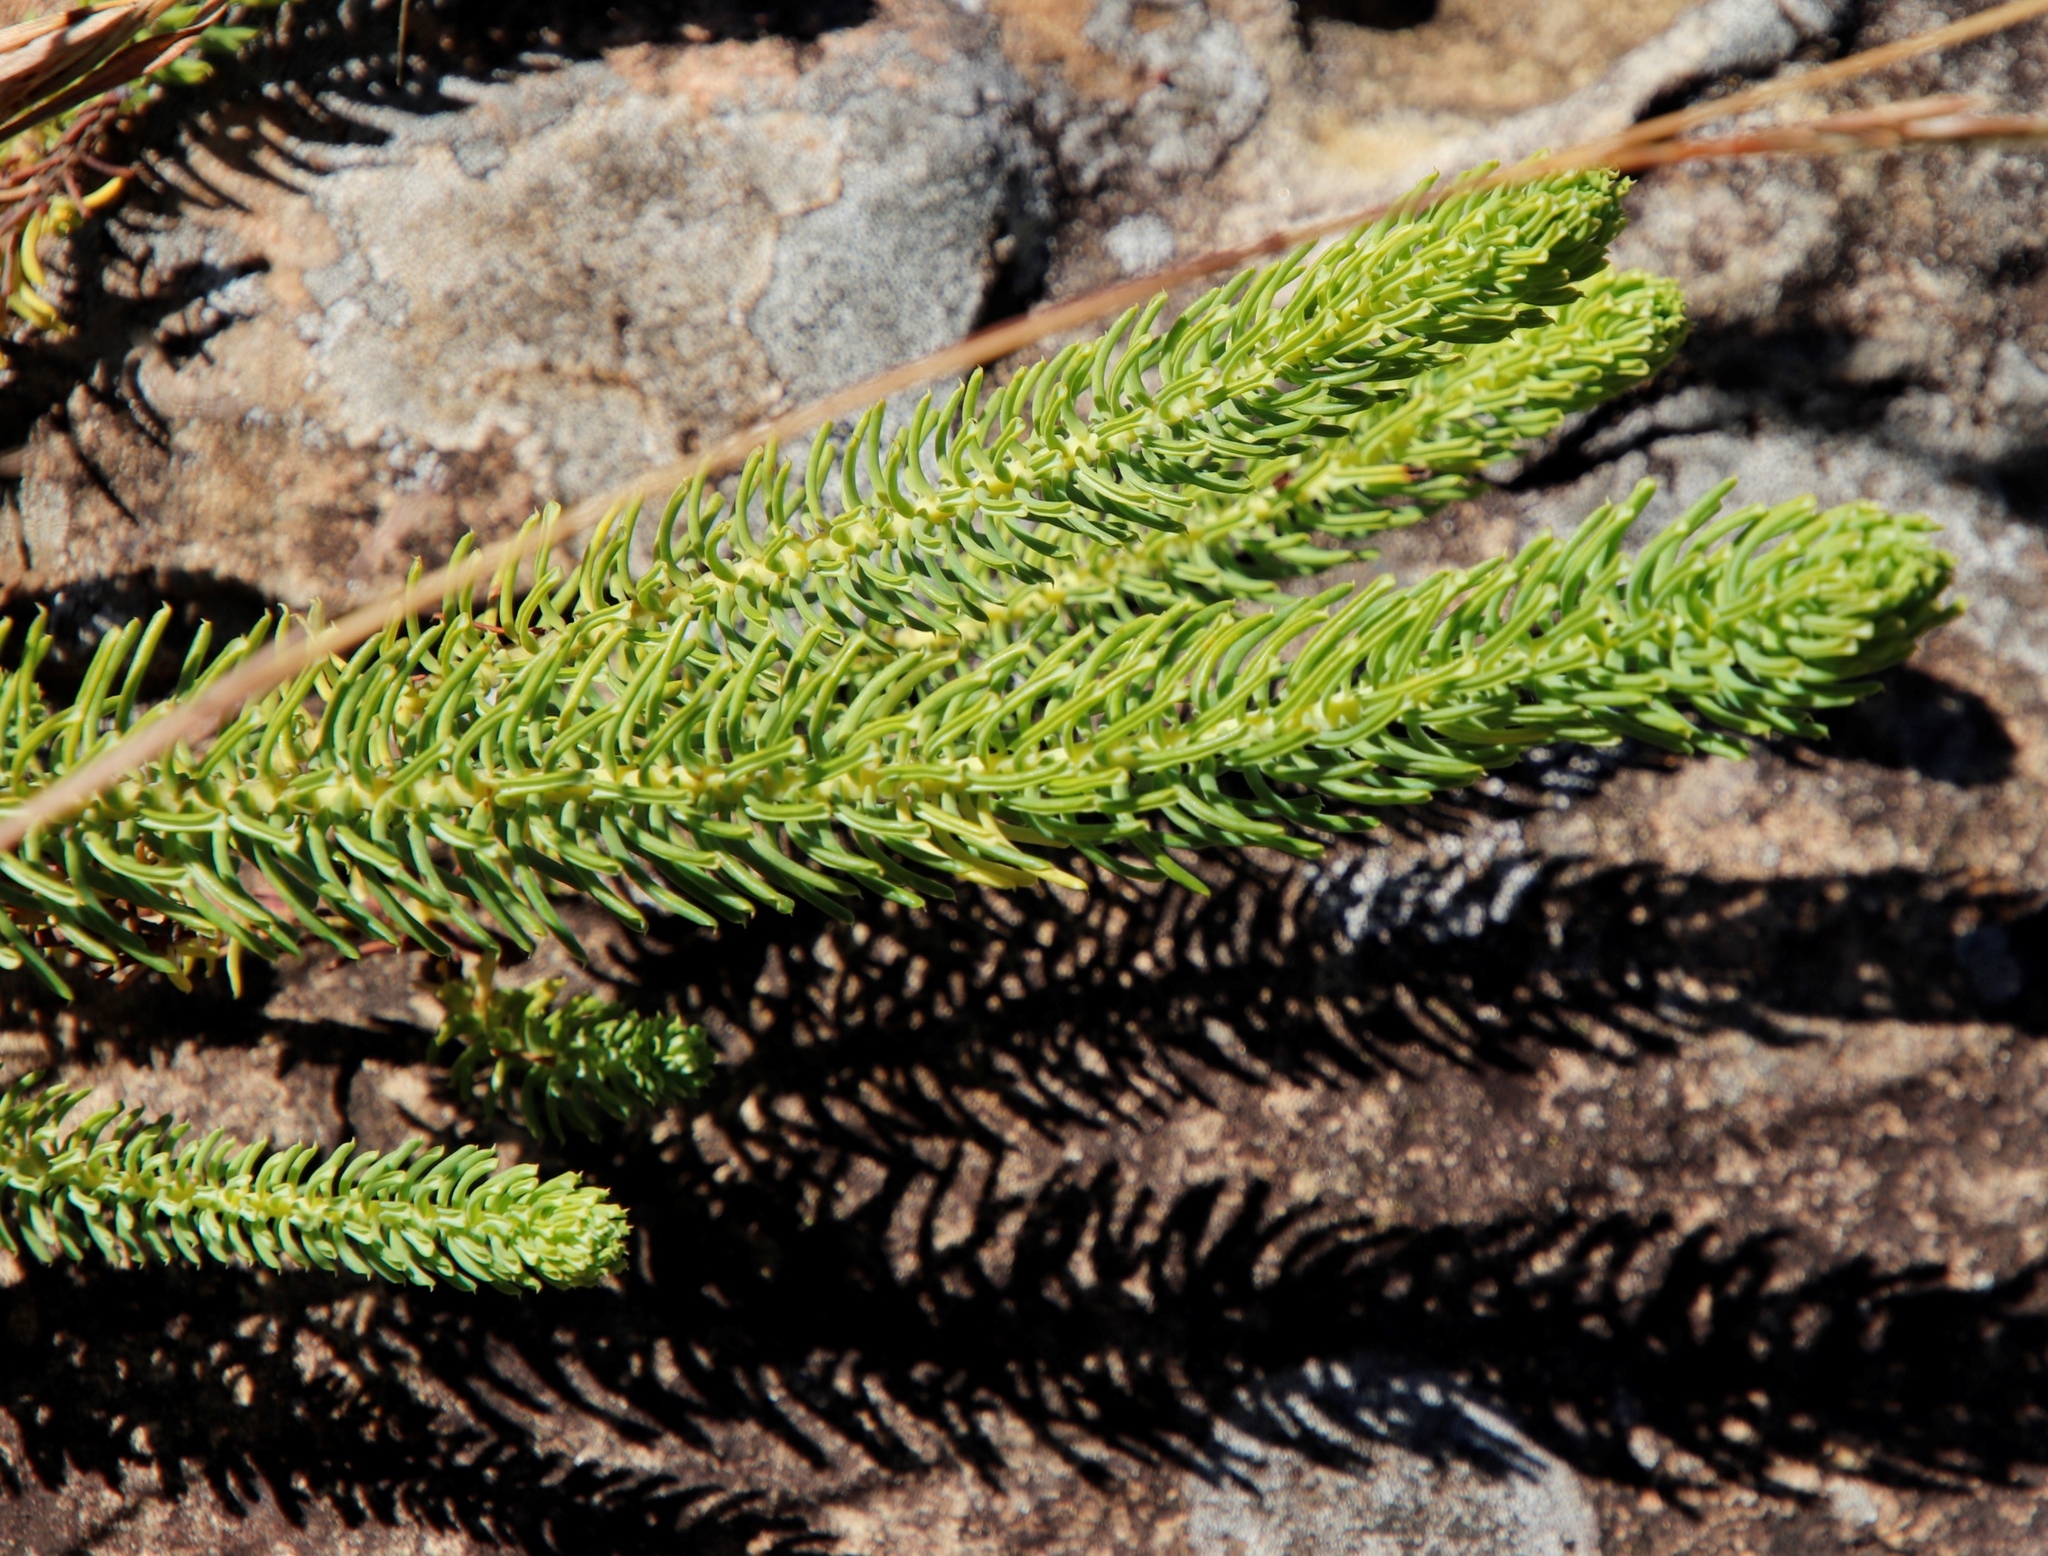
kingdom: Plantae
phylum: Tracheophyta
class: Magnoliopsida
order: Malpighiales
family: Euphorbiaceae
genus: Euphorbia
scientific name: Euphorbia ericoides
